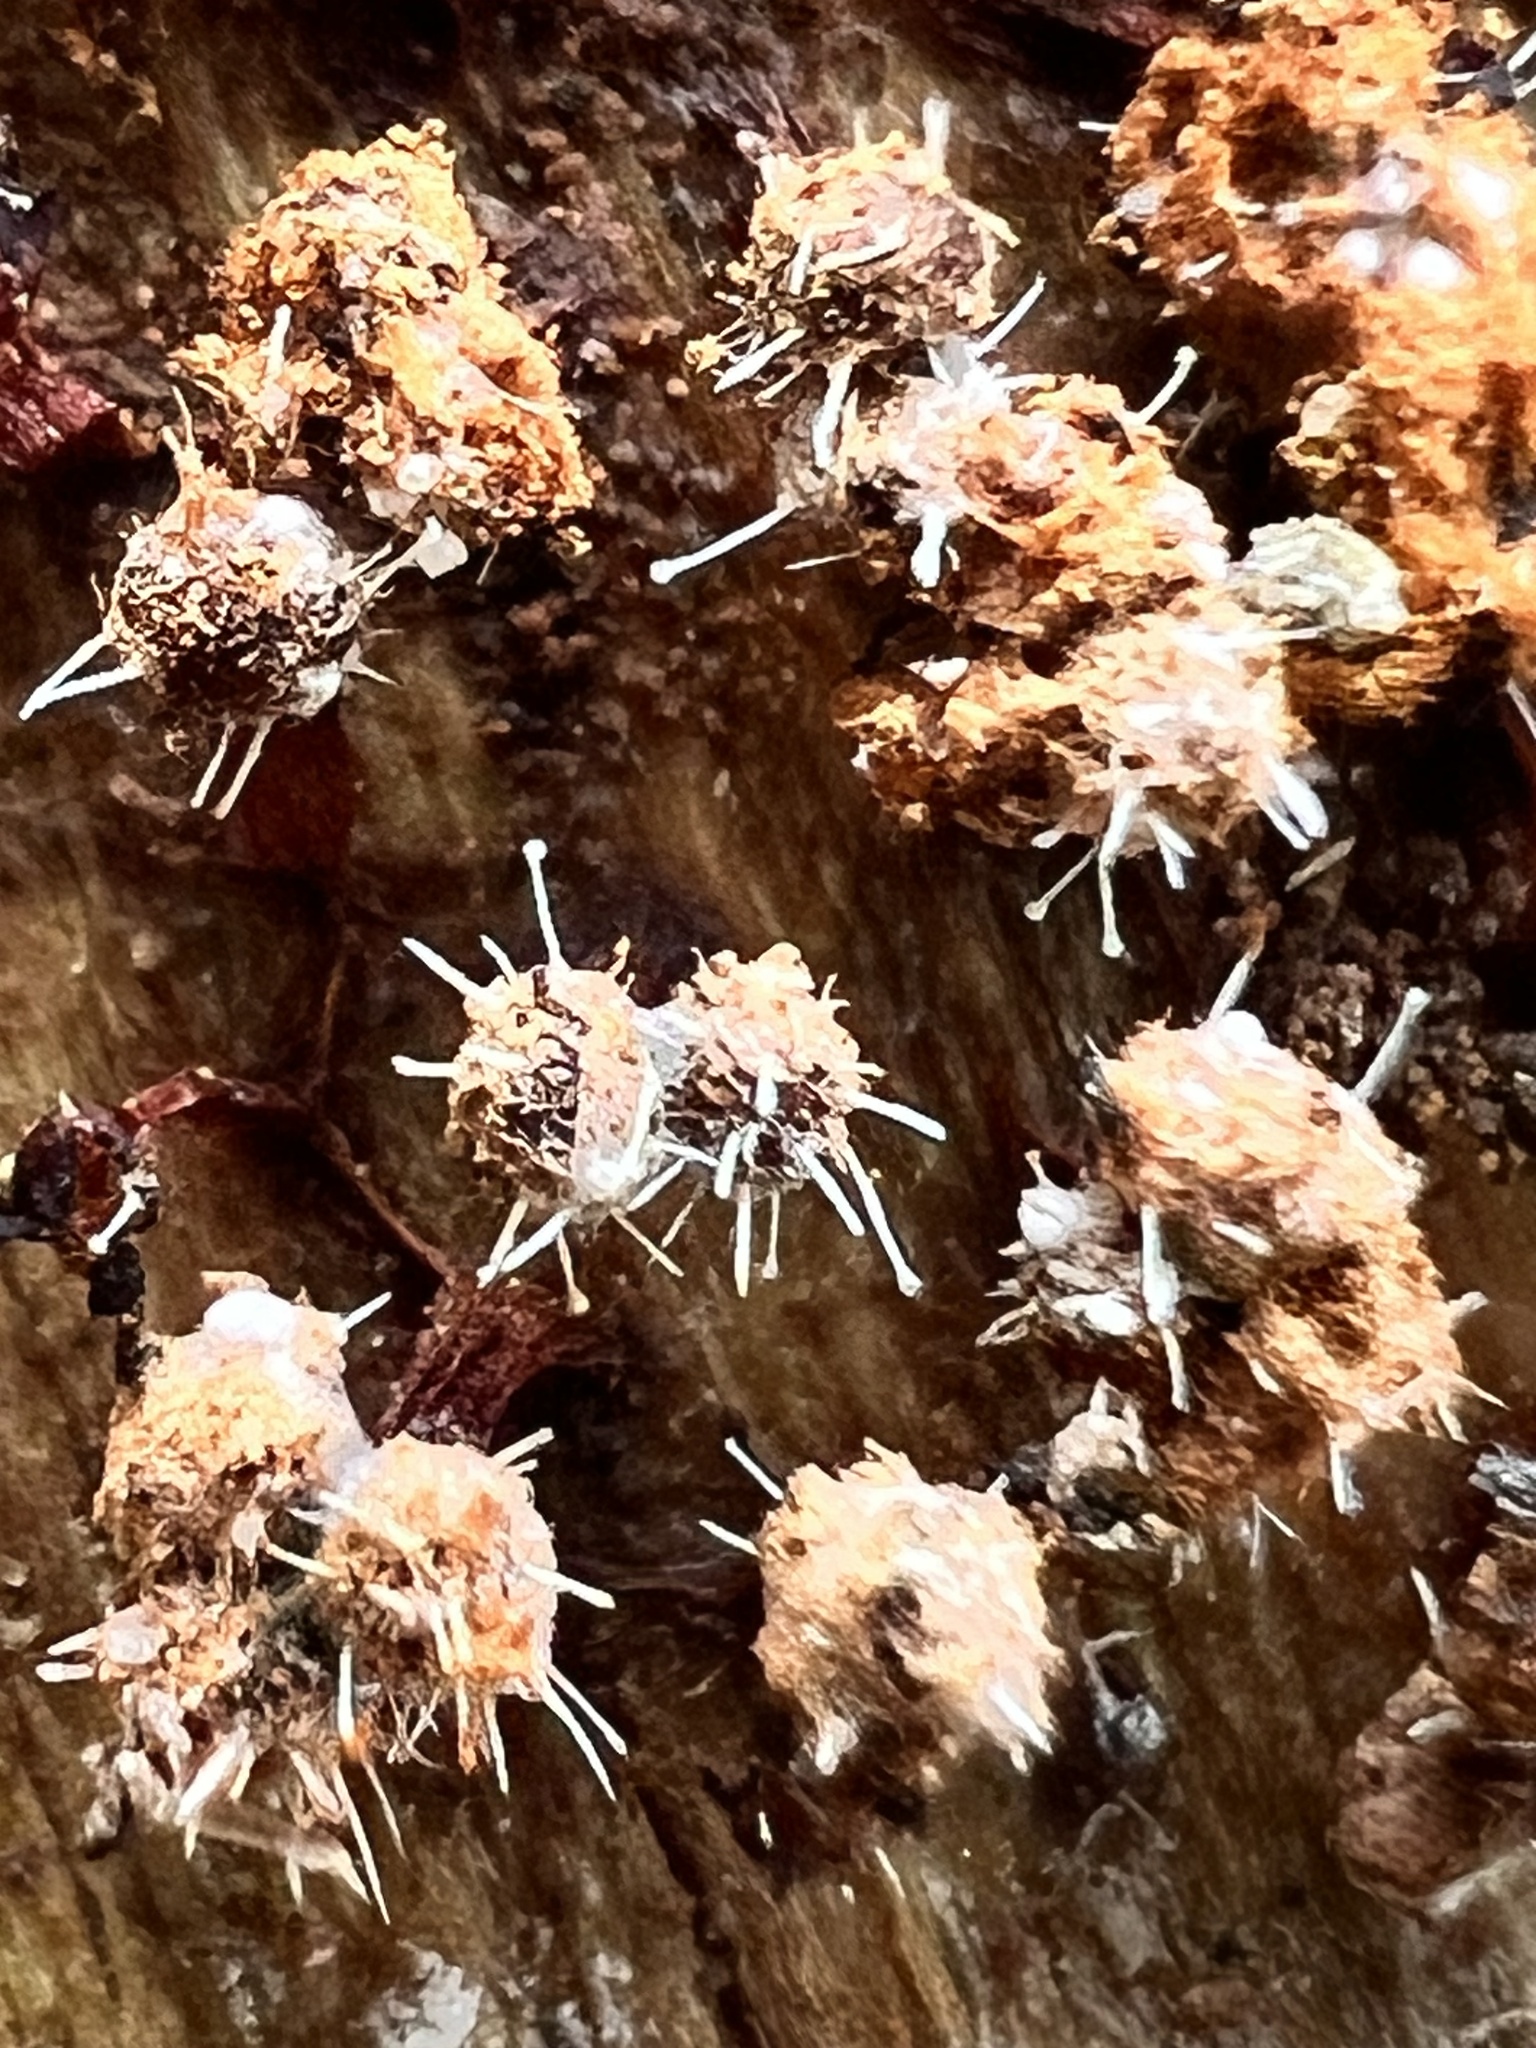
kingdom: Fungi
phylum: Ascomycota
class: Sordariomycetes
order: Hypocreales
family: Ophiocordycipitaceae
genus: Polycephalomyces
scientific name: Polycephalomyces tomentosus
